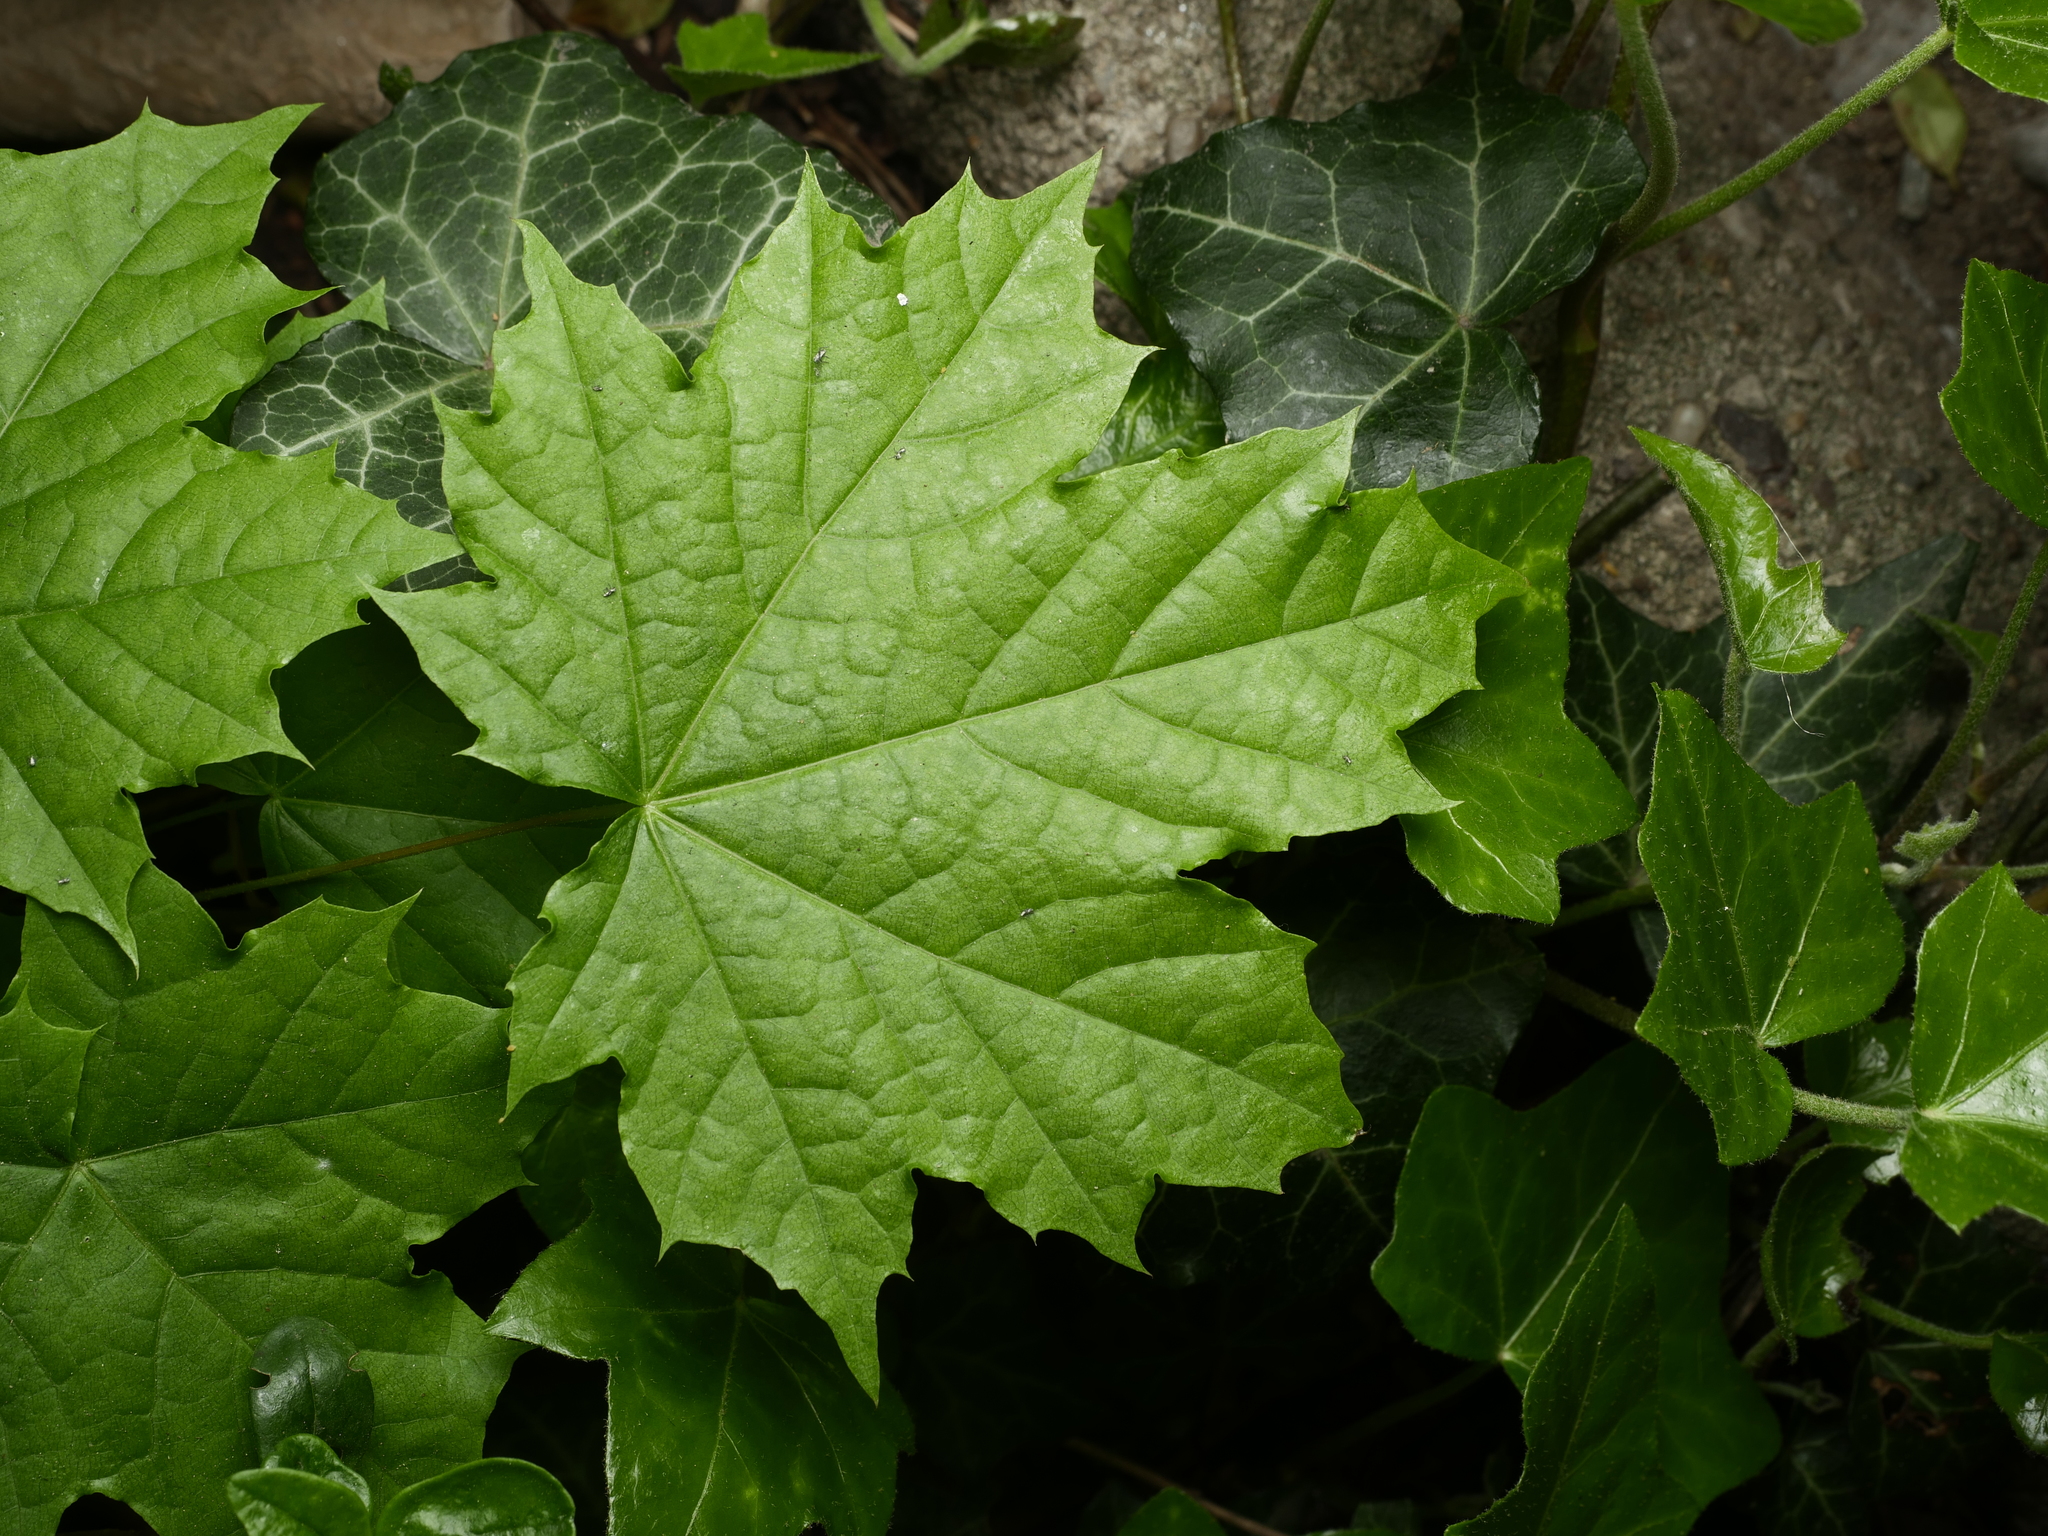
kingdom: Plantae
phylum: Tracheophyta
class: Magnoliopsida
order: Sapindales
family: Sapindaceae
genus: Acer
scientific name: Acer platanoides
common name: Norway maple
